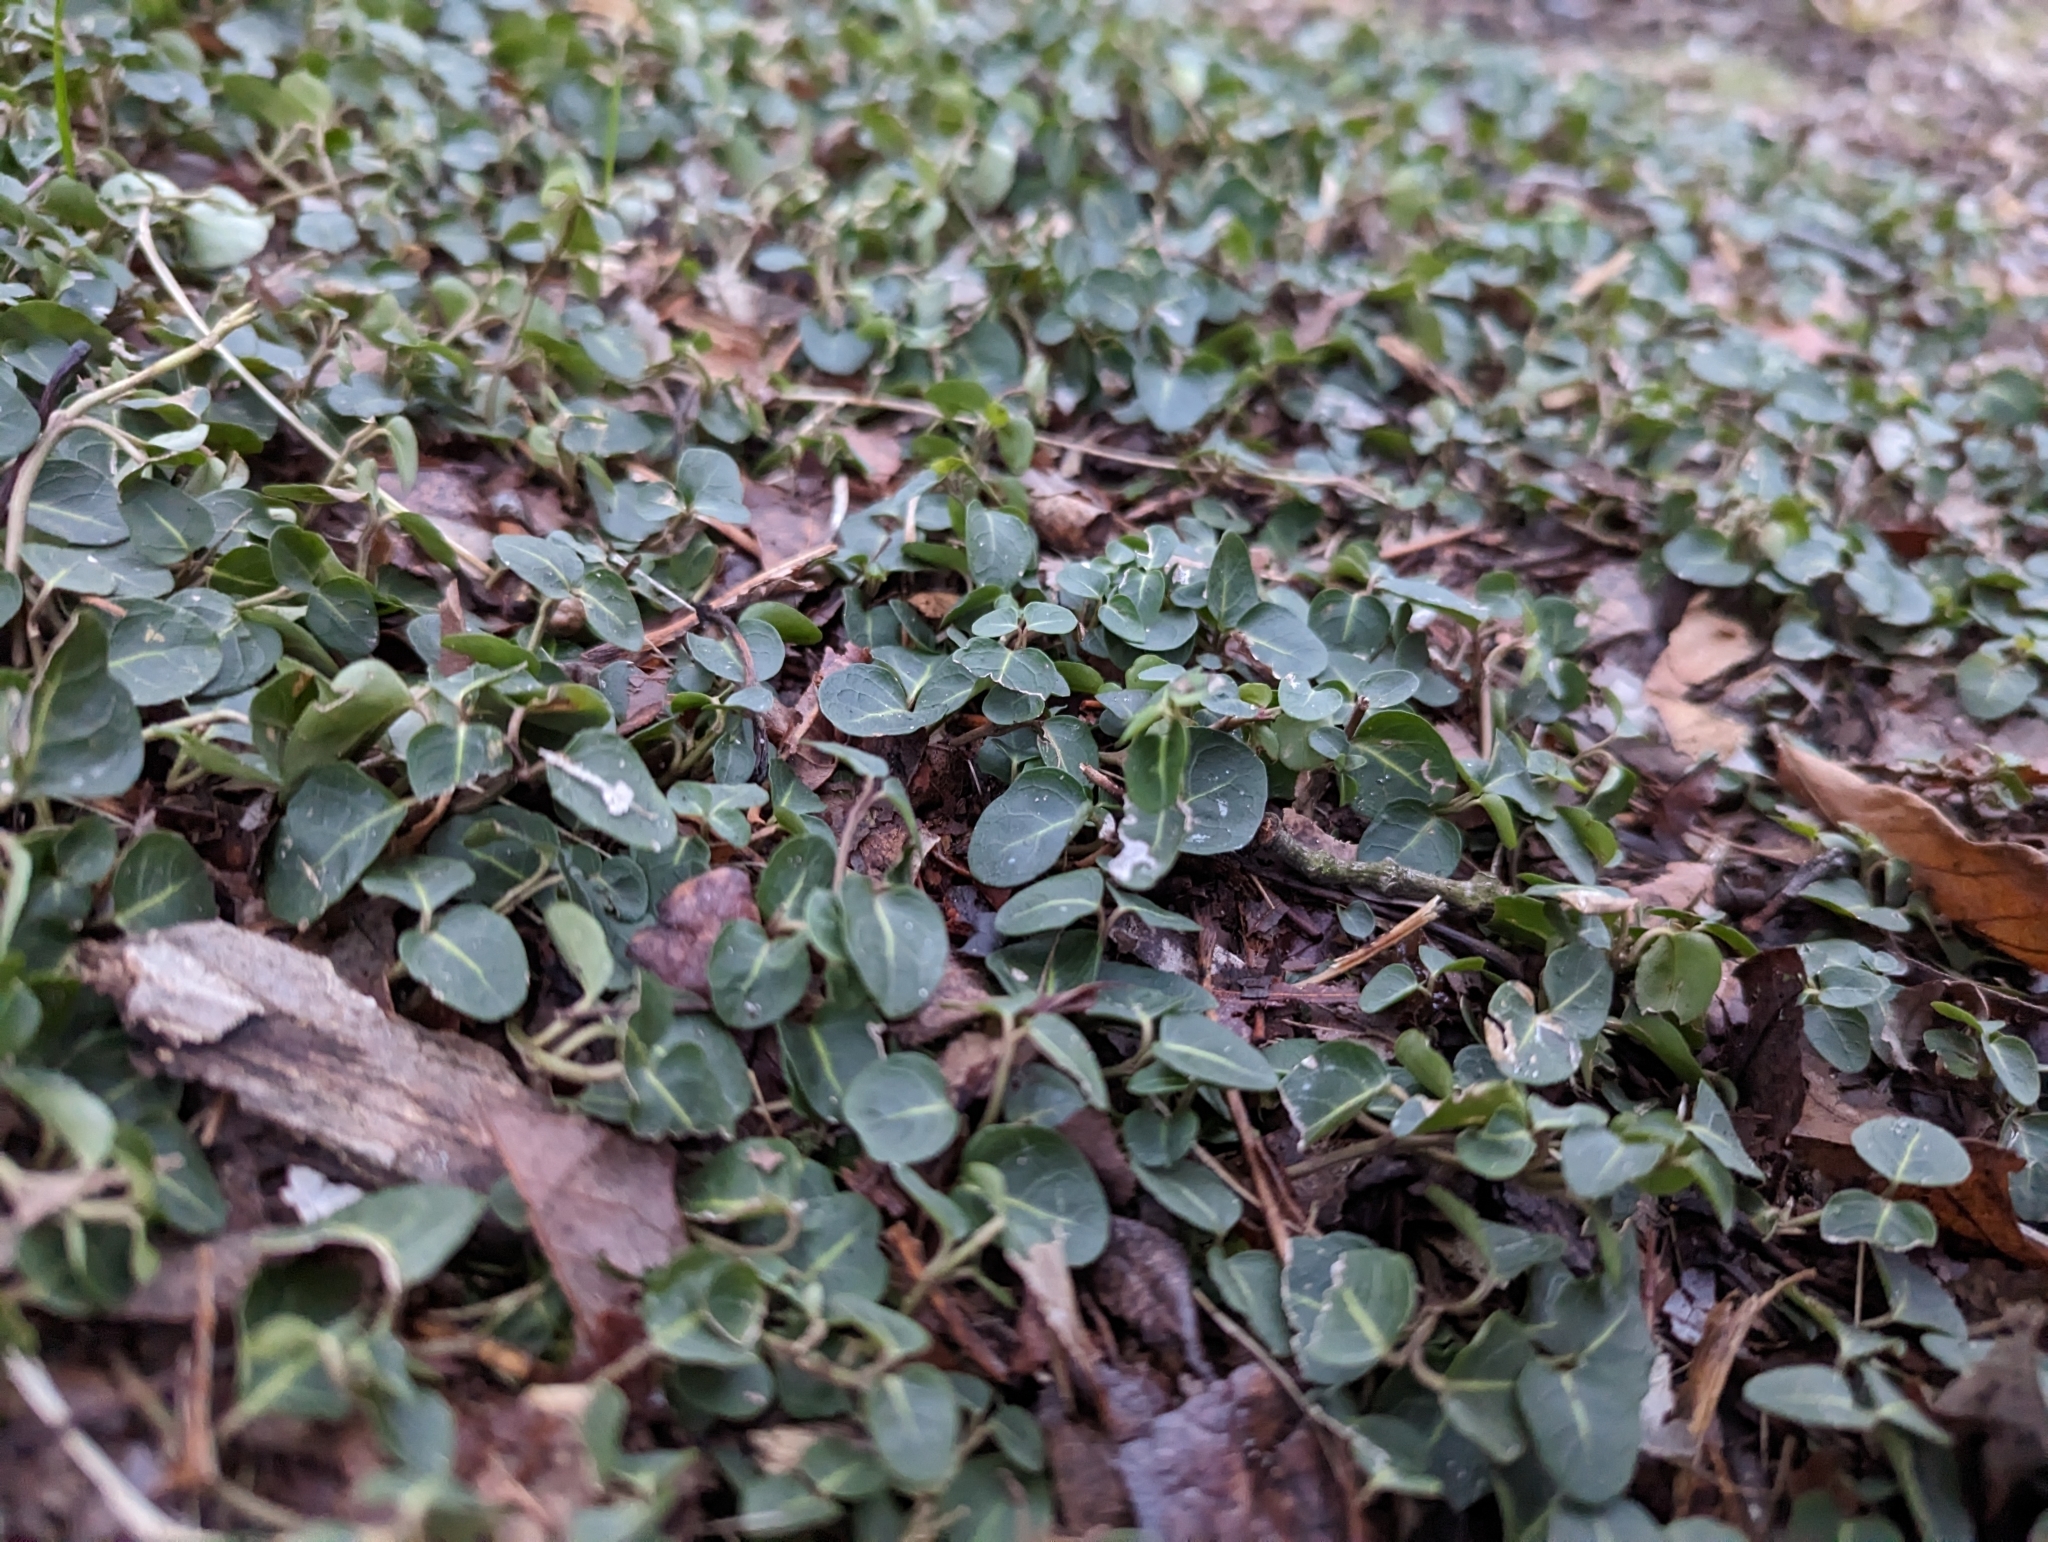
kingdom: Plantae
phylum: Tracheophyta
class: Magnoliopsida
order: Gentianales
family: Rubiaceae
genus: Mitchella
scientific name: Mitchella repens
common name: Partridge-berry
